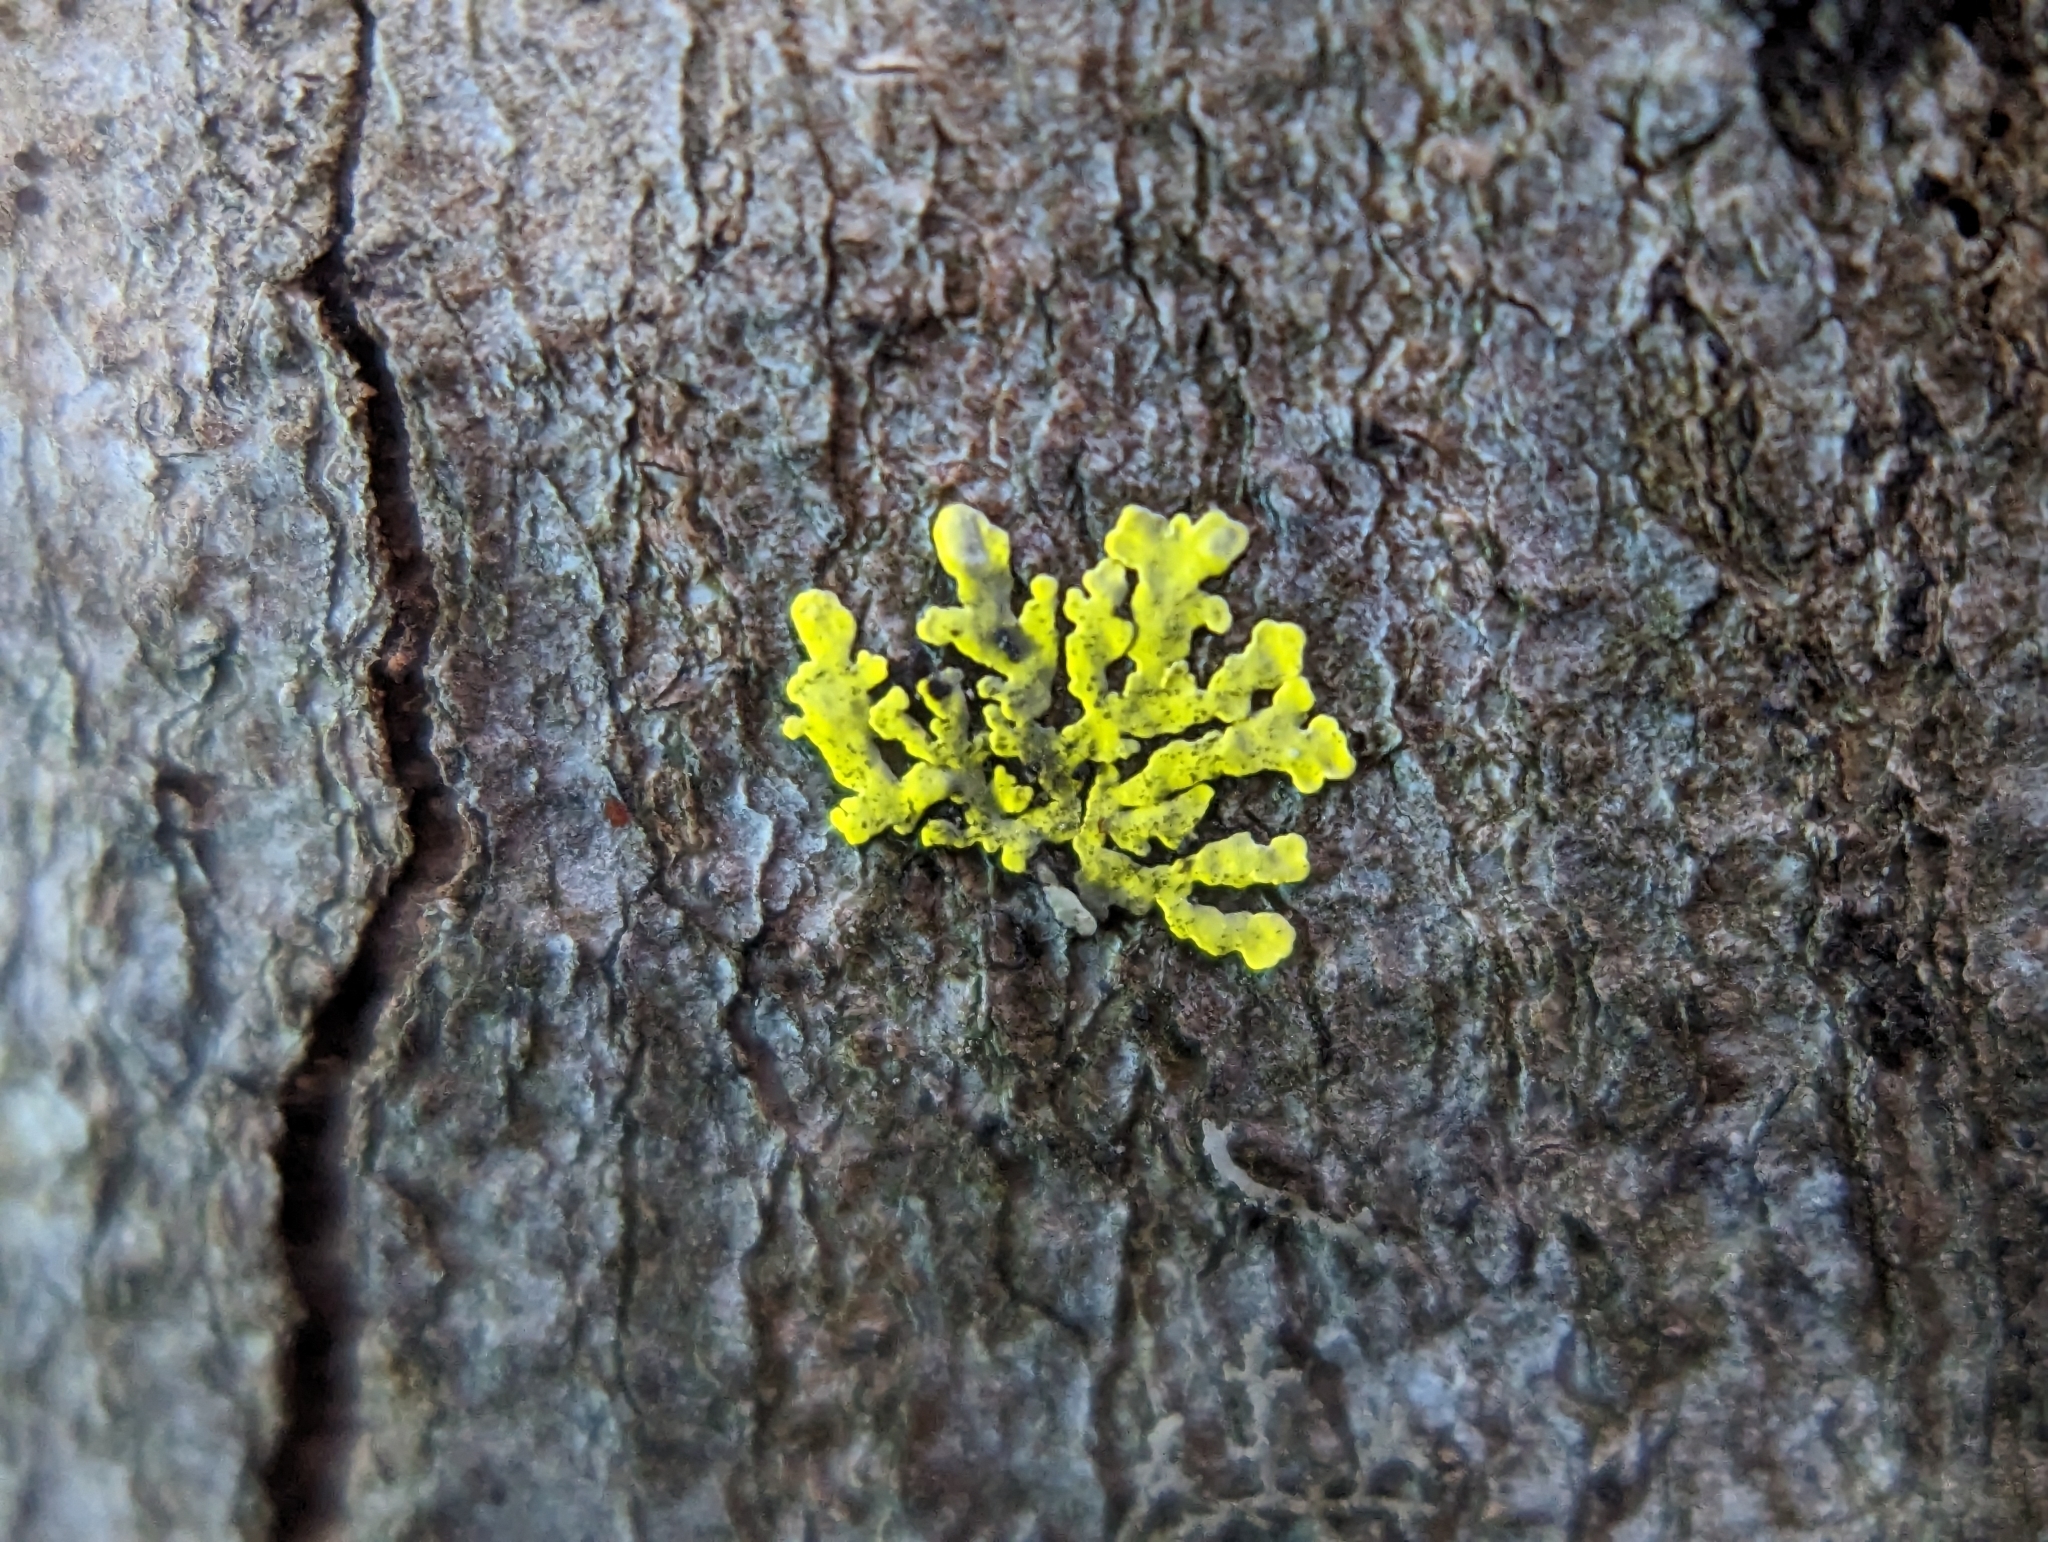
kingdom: Fungi
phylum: Ascomycota
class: Lecanoromycetes
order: Caliciales
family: Caliciaceae
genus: Pyxine
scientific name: Pyxine subcinerea
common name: Mustard lichen
